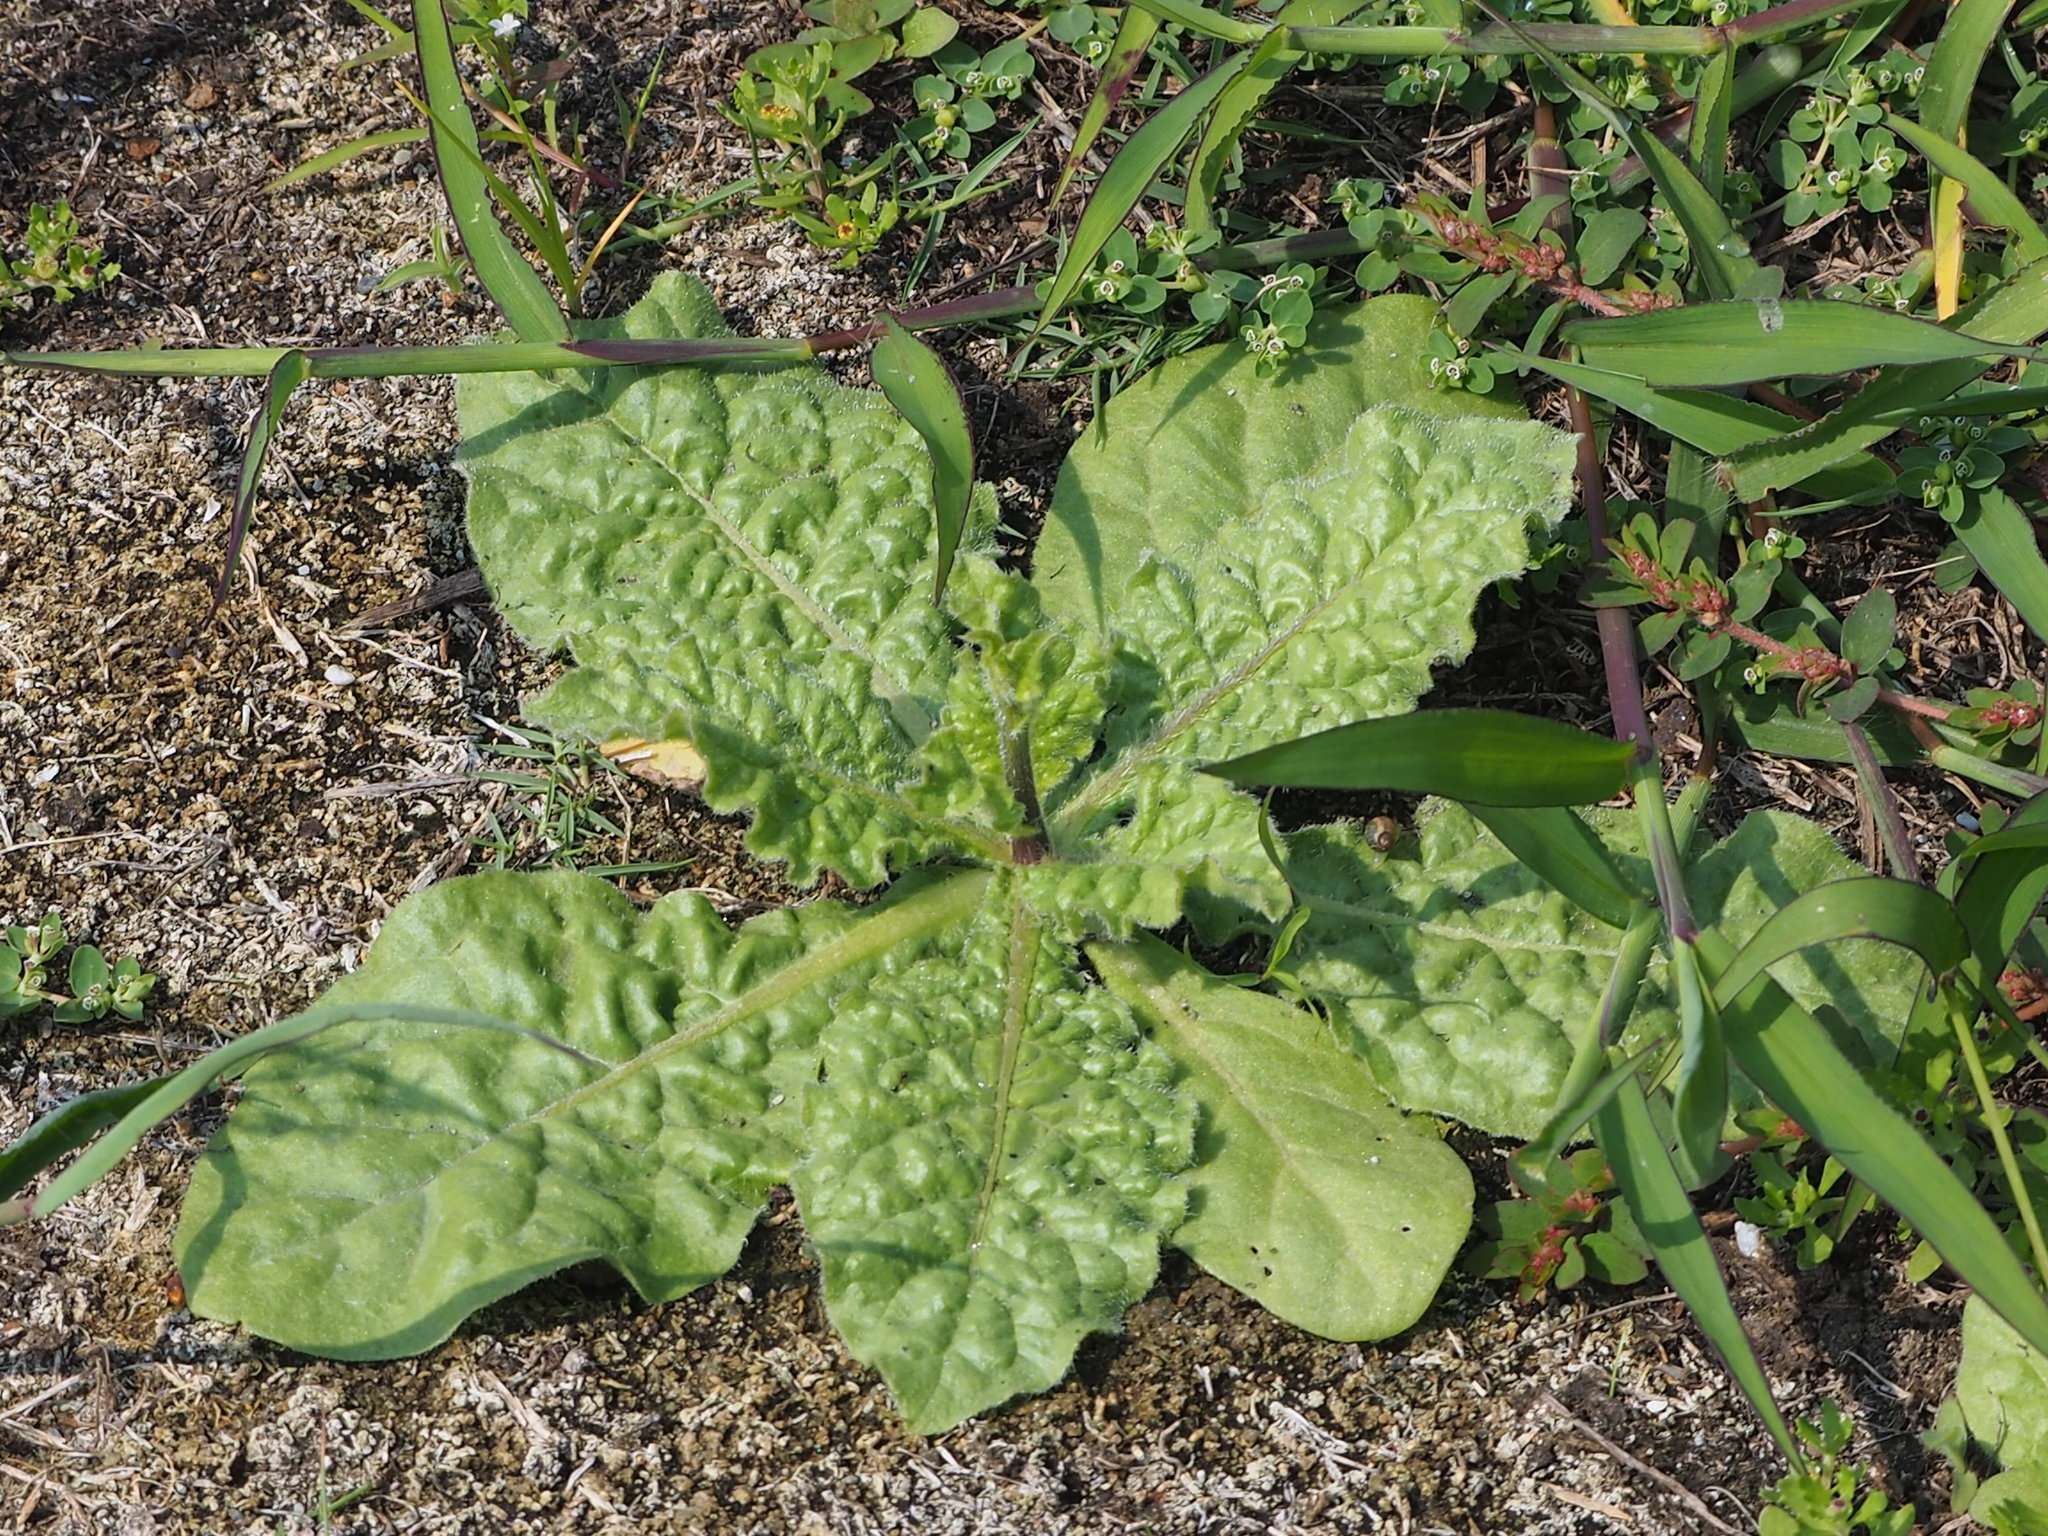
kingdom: Plantae
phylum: Tracheophyta
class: Magnoliopsida
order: Solanales
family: Solanaceae
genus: Nicotiana
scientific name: Nicotiana plumbaginifolia
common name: Tex-mex tobacco
